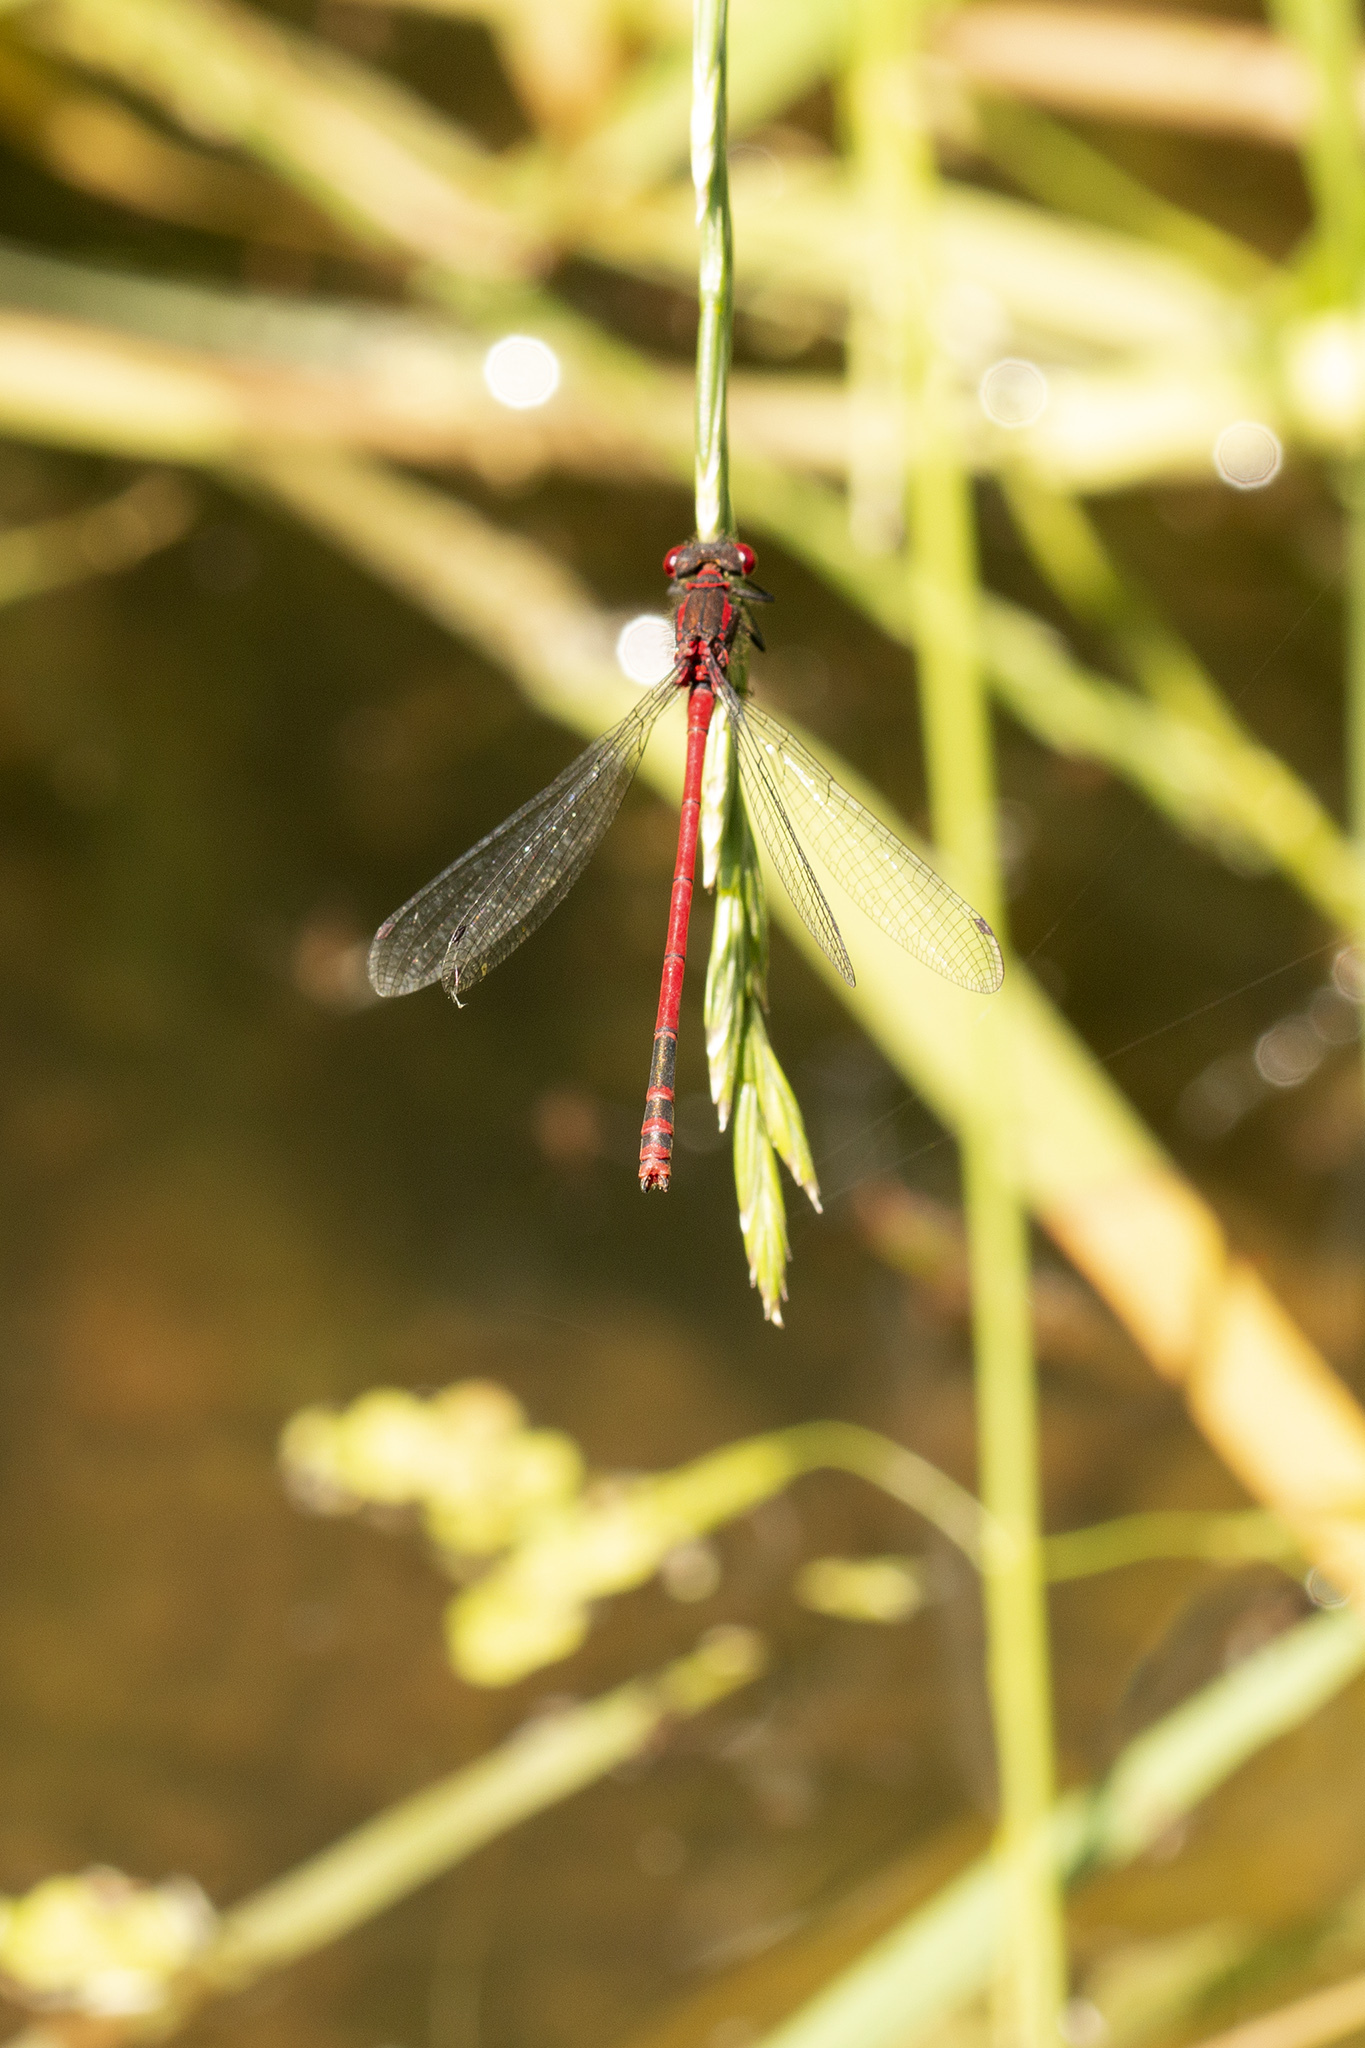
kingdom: Animalia
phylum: Arthropoda
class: Insecta
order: Odonata
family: Coenagrionidae
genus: Pyrrhosoma
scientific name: Pyrrhosoma nymphula
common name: Large red damsel
